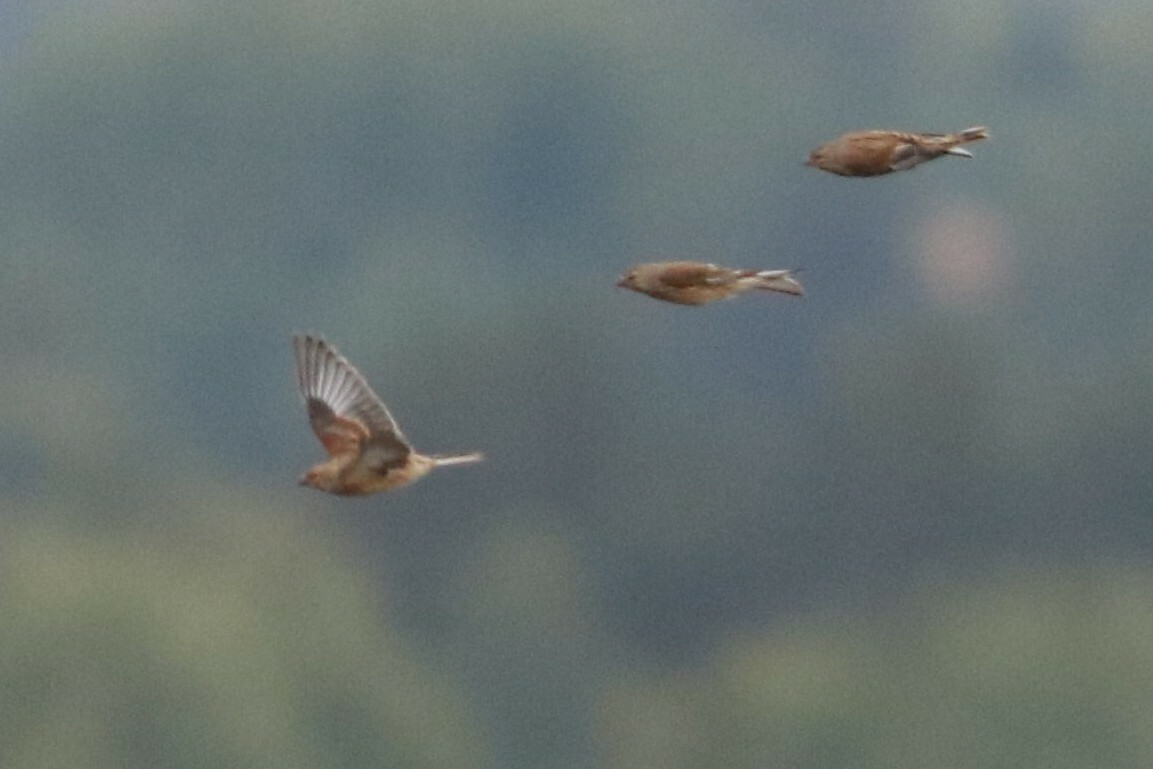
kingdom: Animalia
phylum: Chordata
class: Aves
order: Passeriformes
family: Fringillidae
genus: Linaria
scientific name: Linaria cannabina
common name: Common linnet
